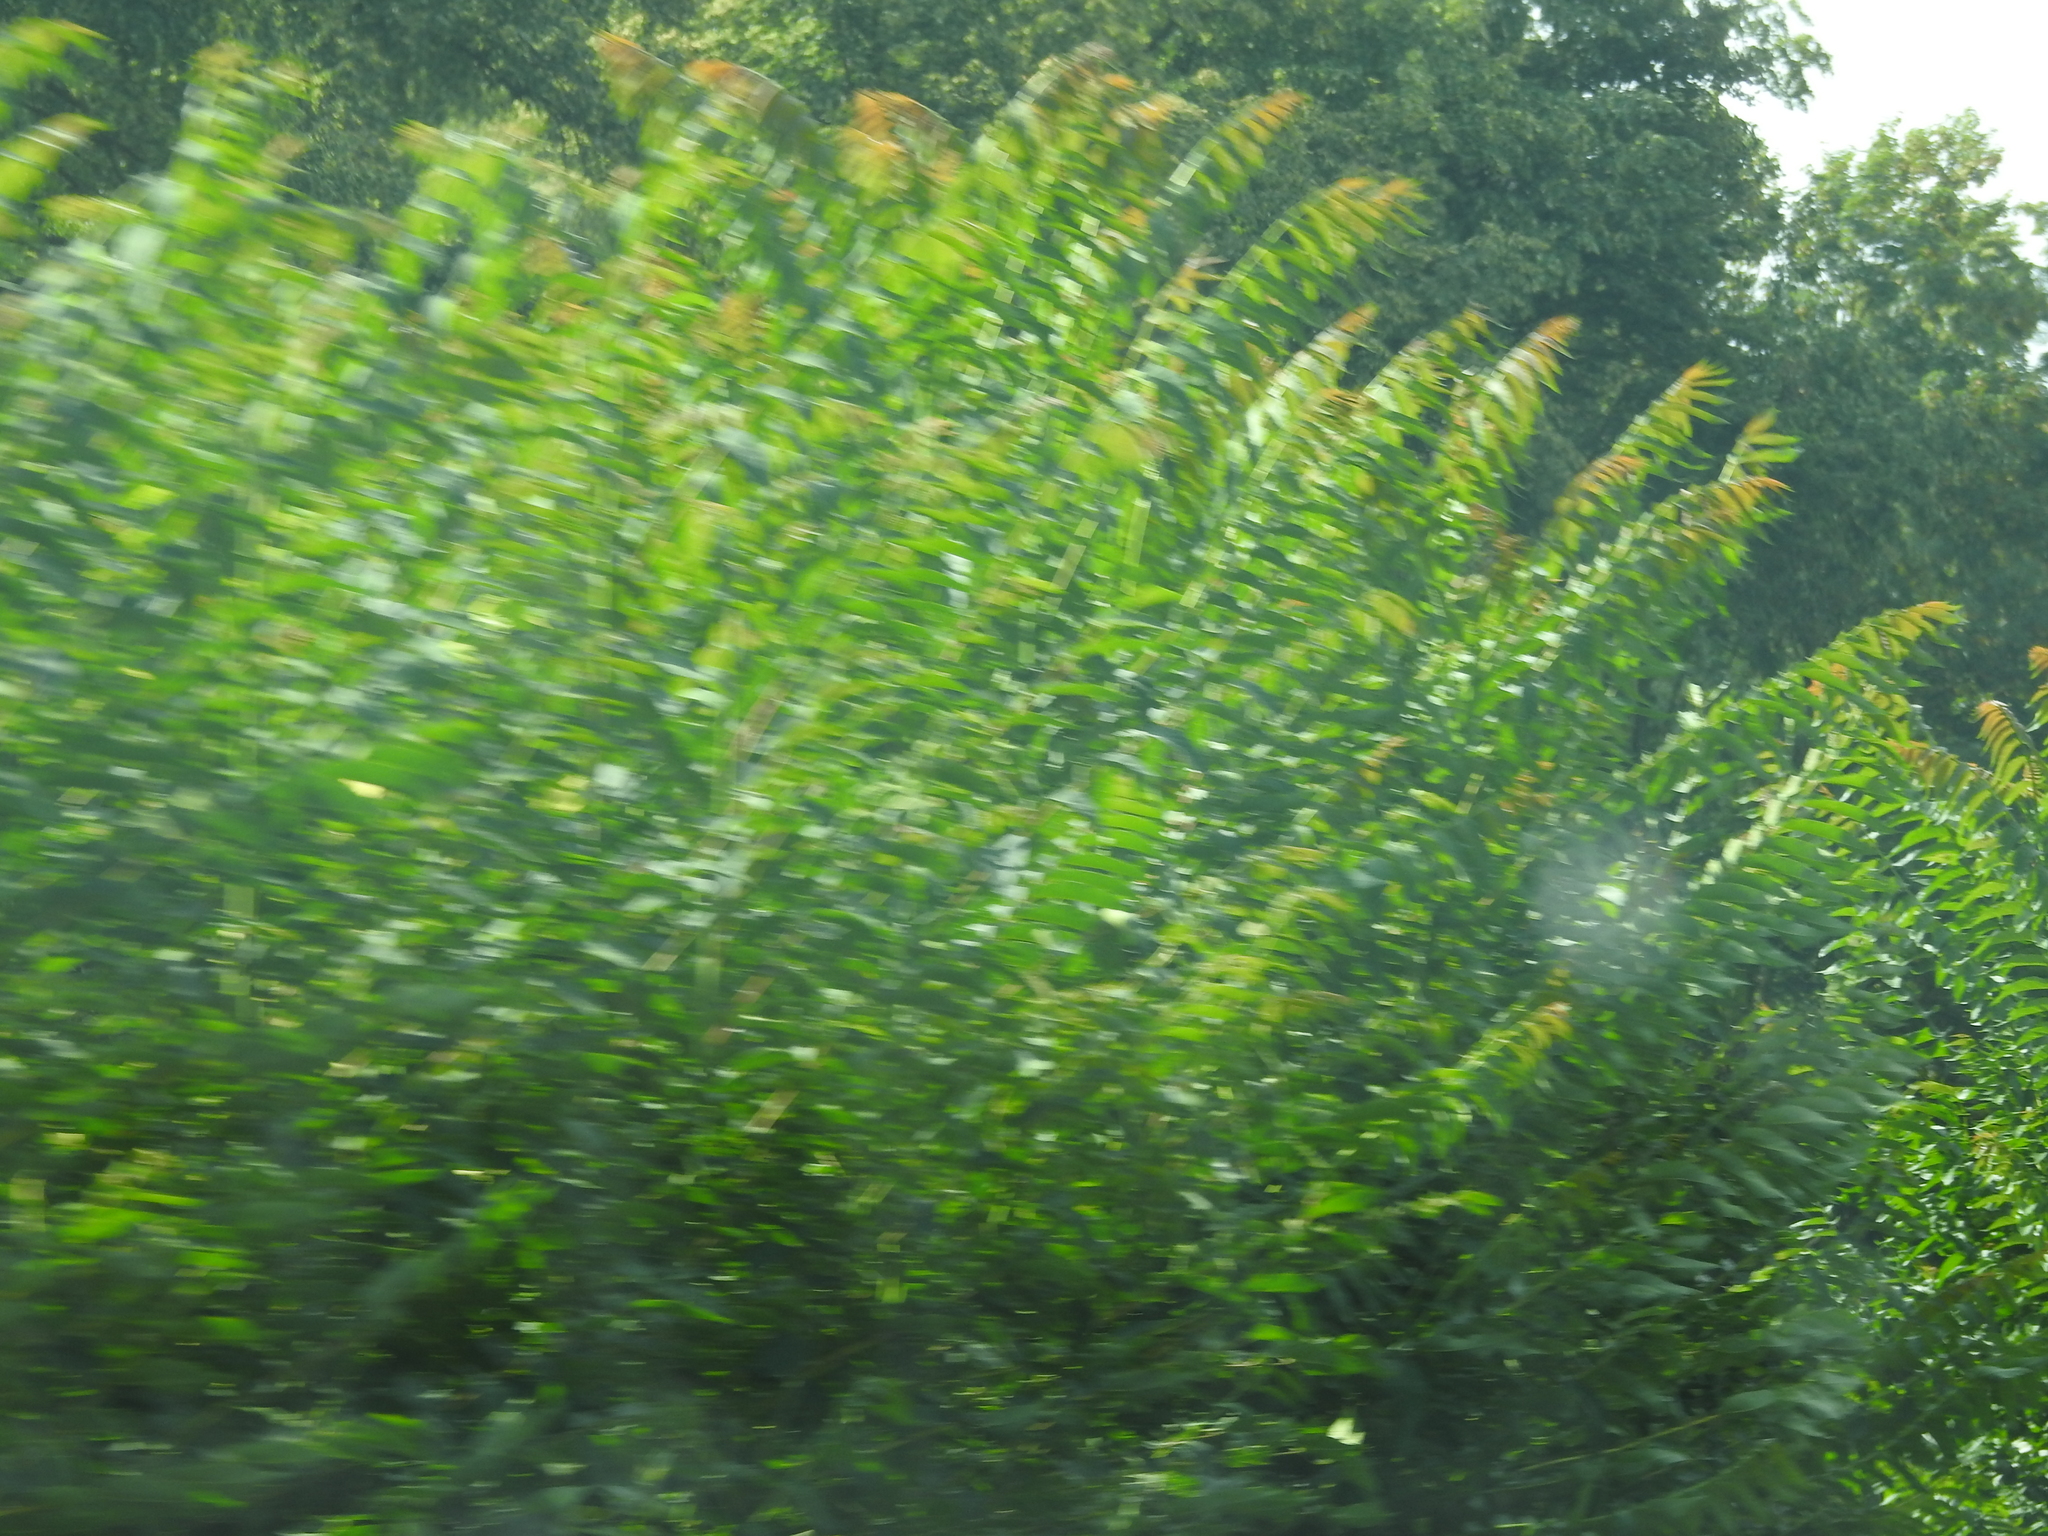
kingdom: Plantae
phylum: Tracheophyta
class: Magnoliopsida
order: Sapindales
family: Simaroubaceae
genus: Ailanthus
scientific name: Ailanthus altissima
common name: Tree-of-heaven
